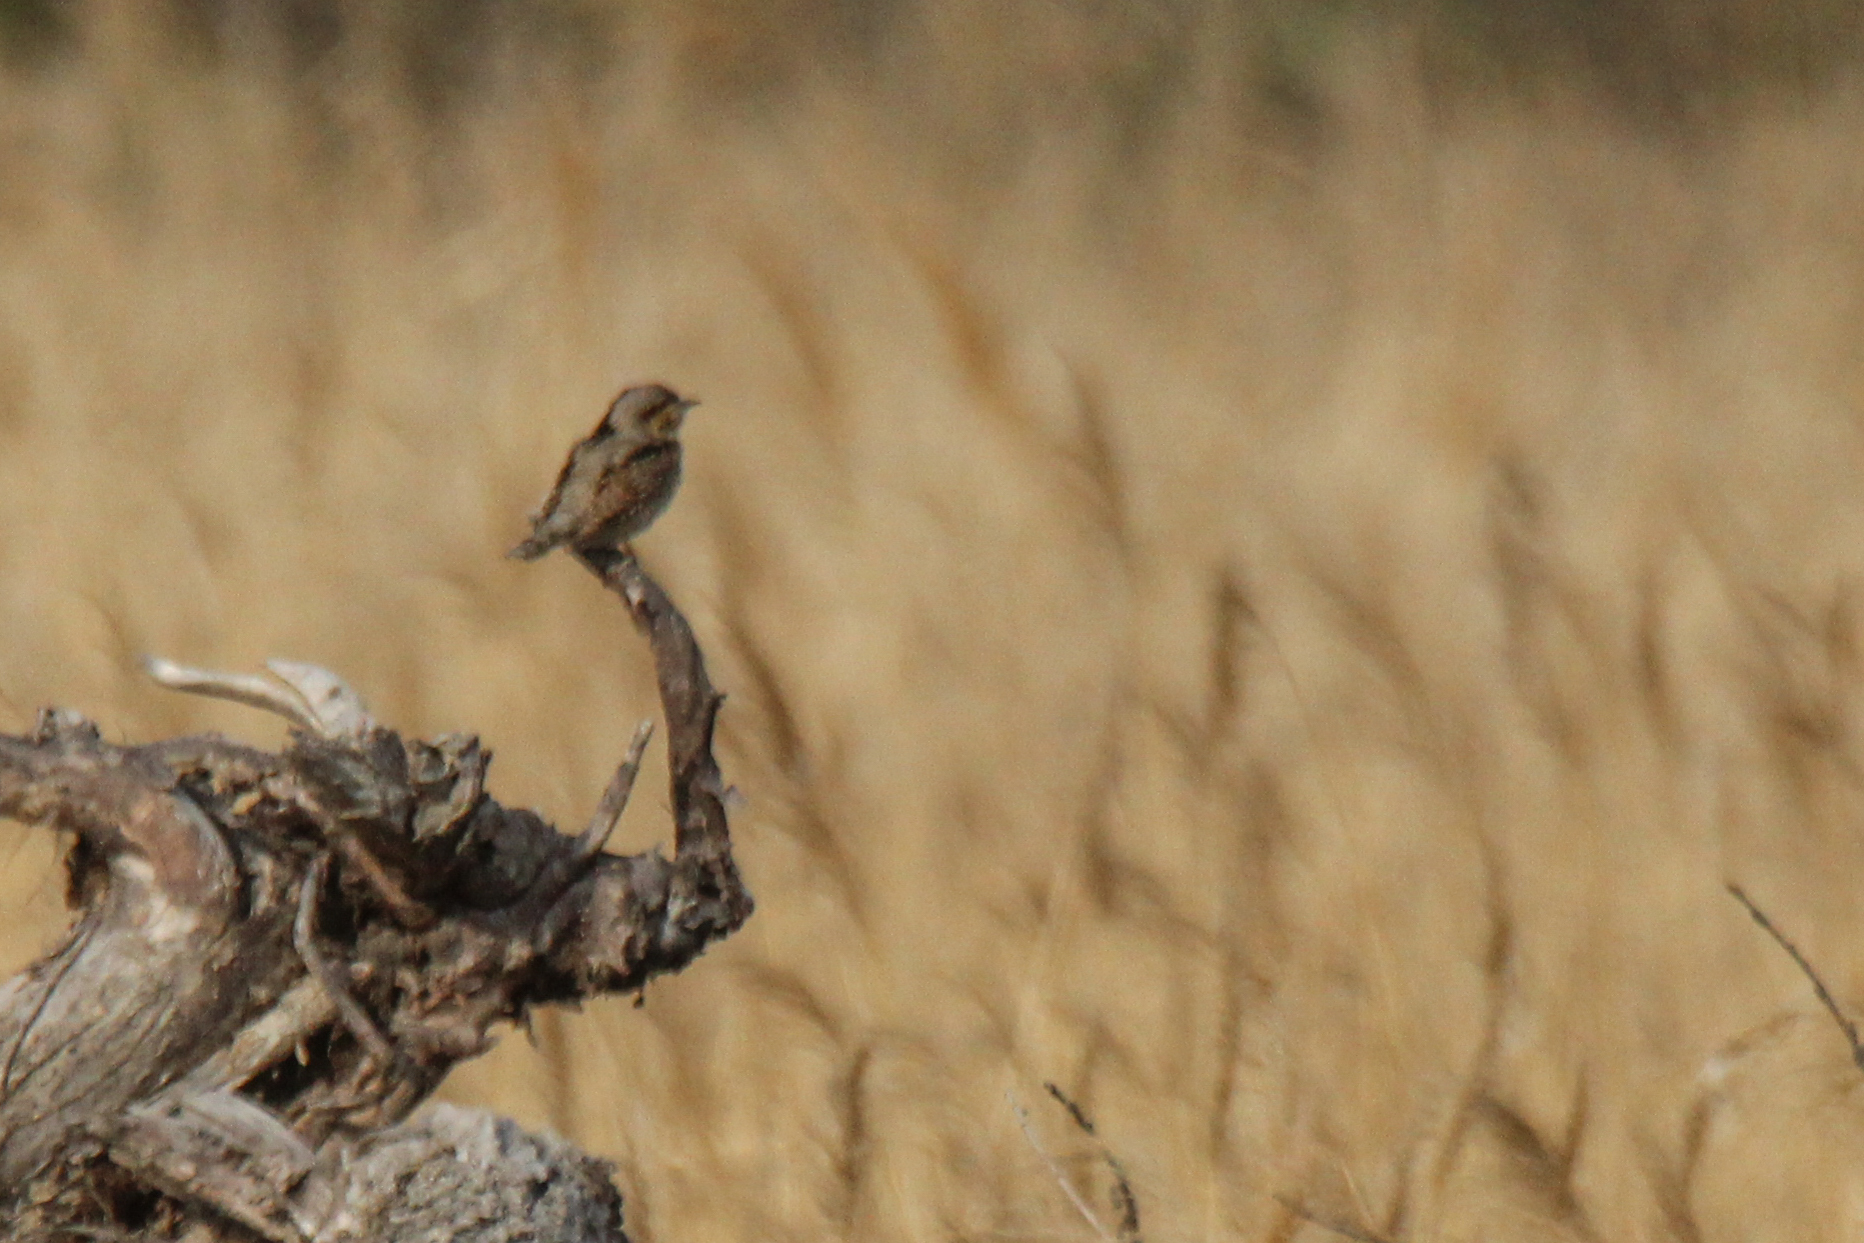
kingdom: Animalia
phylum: Chordata
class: Aves
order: Piciformes
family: Picidae
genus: Jynx
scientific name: Jynx torquilla
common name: Eurasian wryneck
